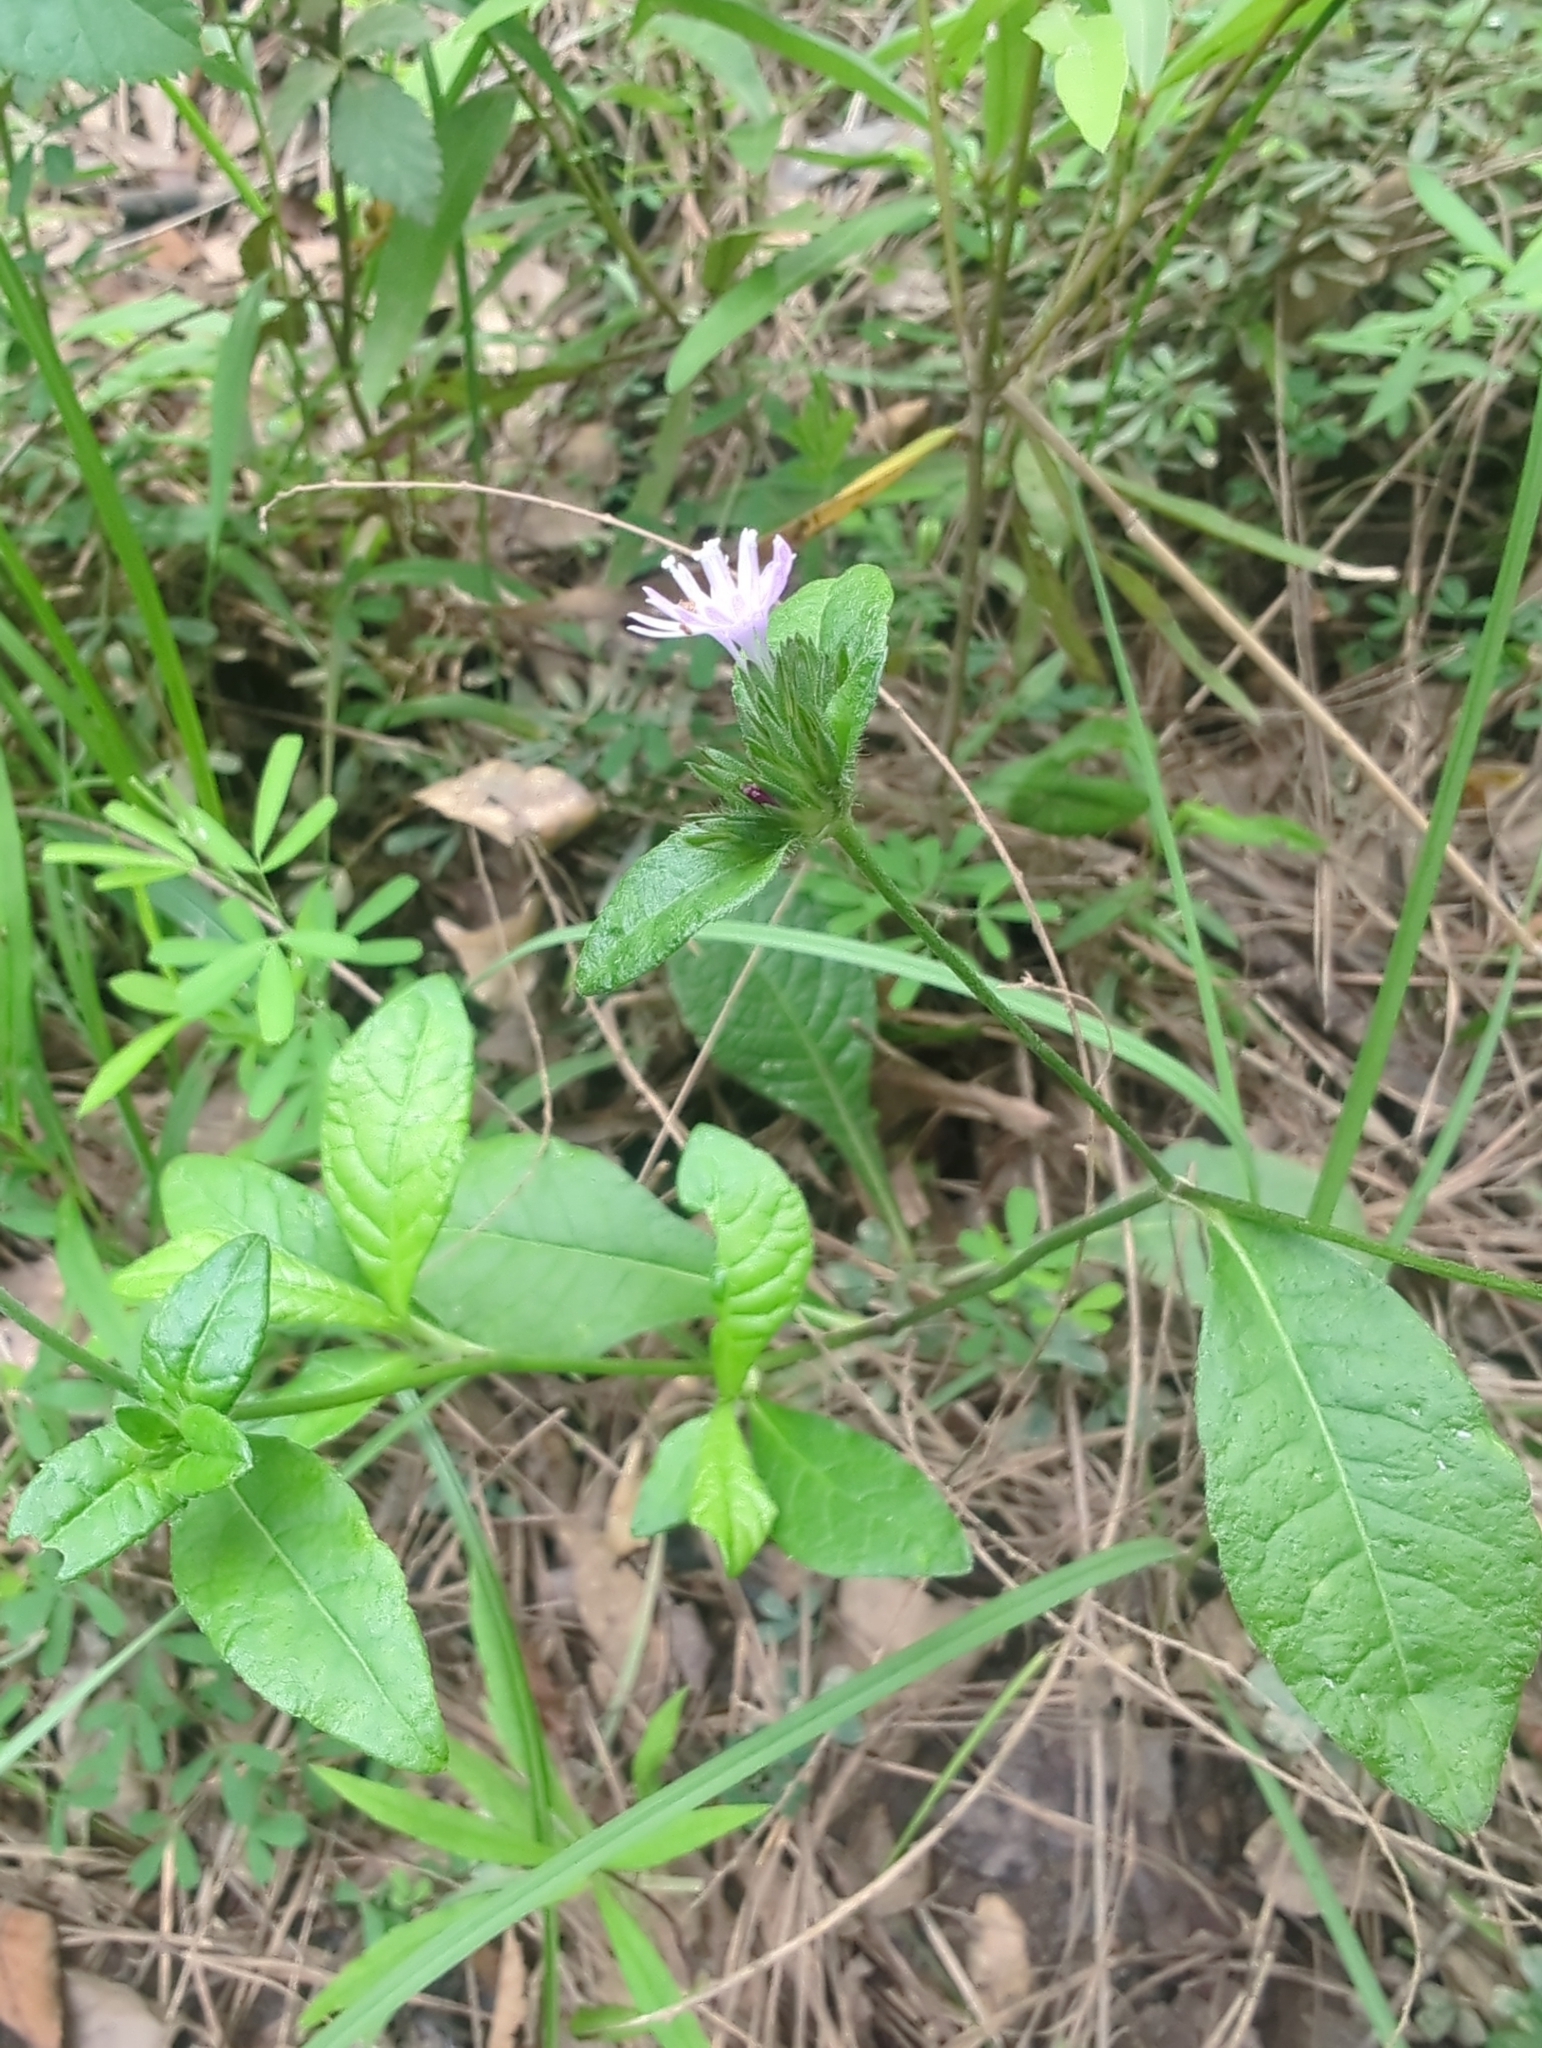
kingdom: Plantae
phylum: Tracheophyta
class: Magnoliopsida
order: Asterales
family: Asteraceae
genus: Elephantopus
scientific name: Elephantopus carolinianus
